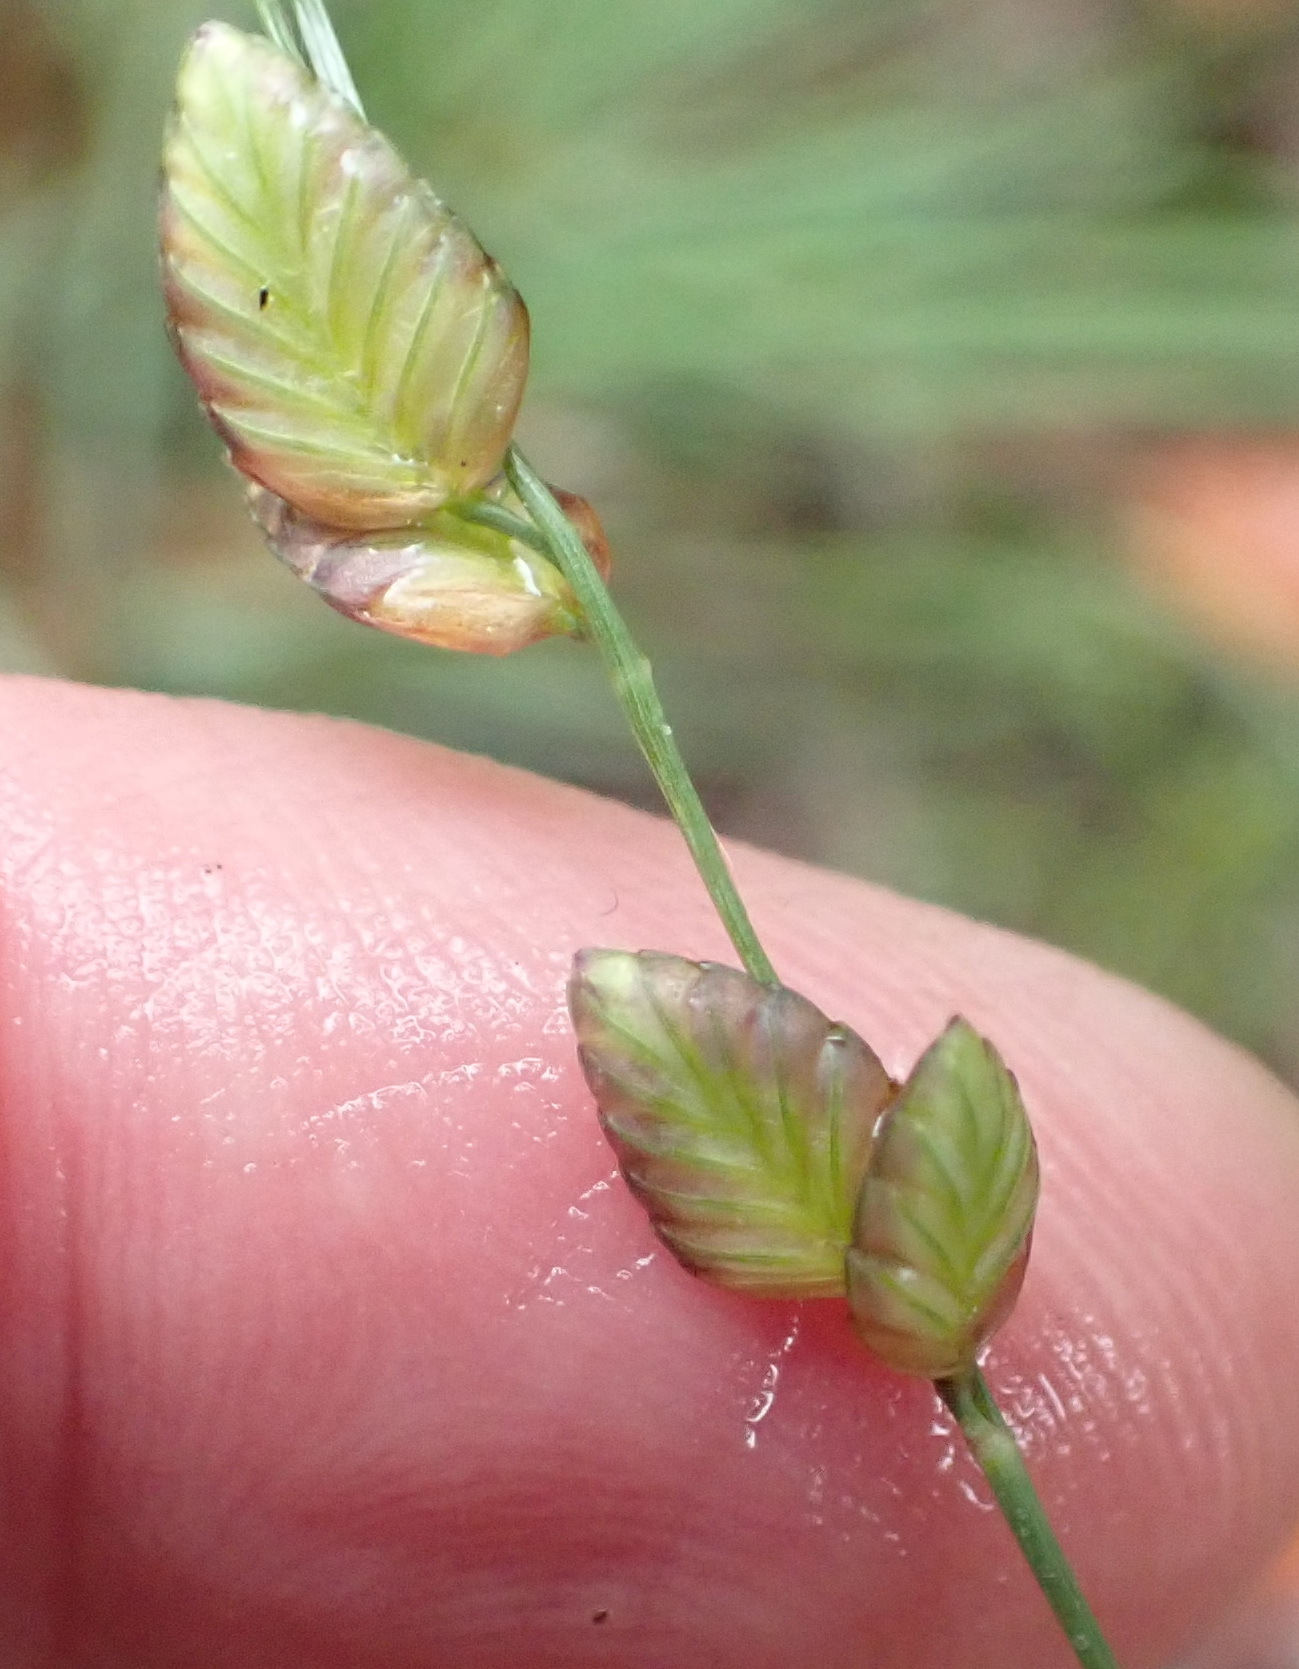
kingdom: Plantae
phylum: Tracheophyta
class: Liliopsida
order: Poales
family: Poaceae
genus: Eragrostis
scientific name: Eragrostis capensis
